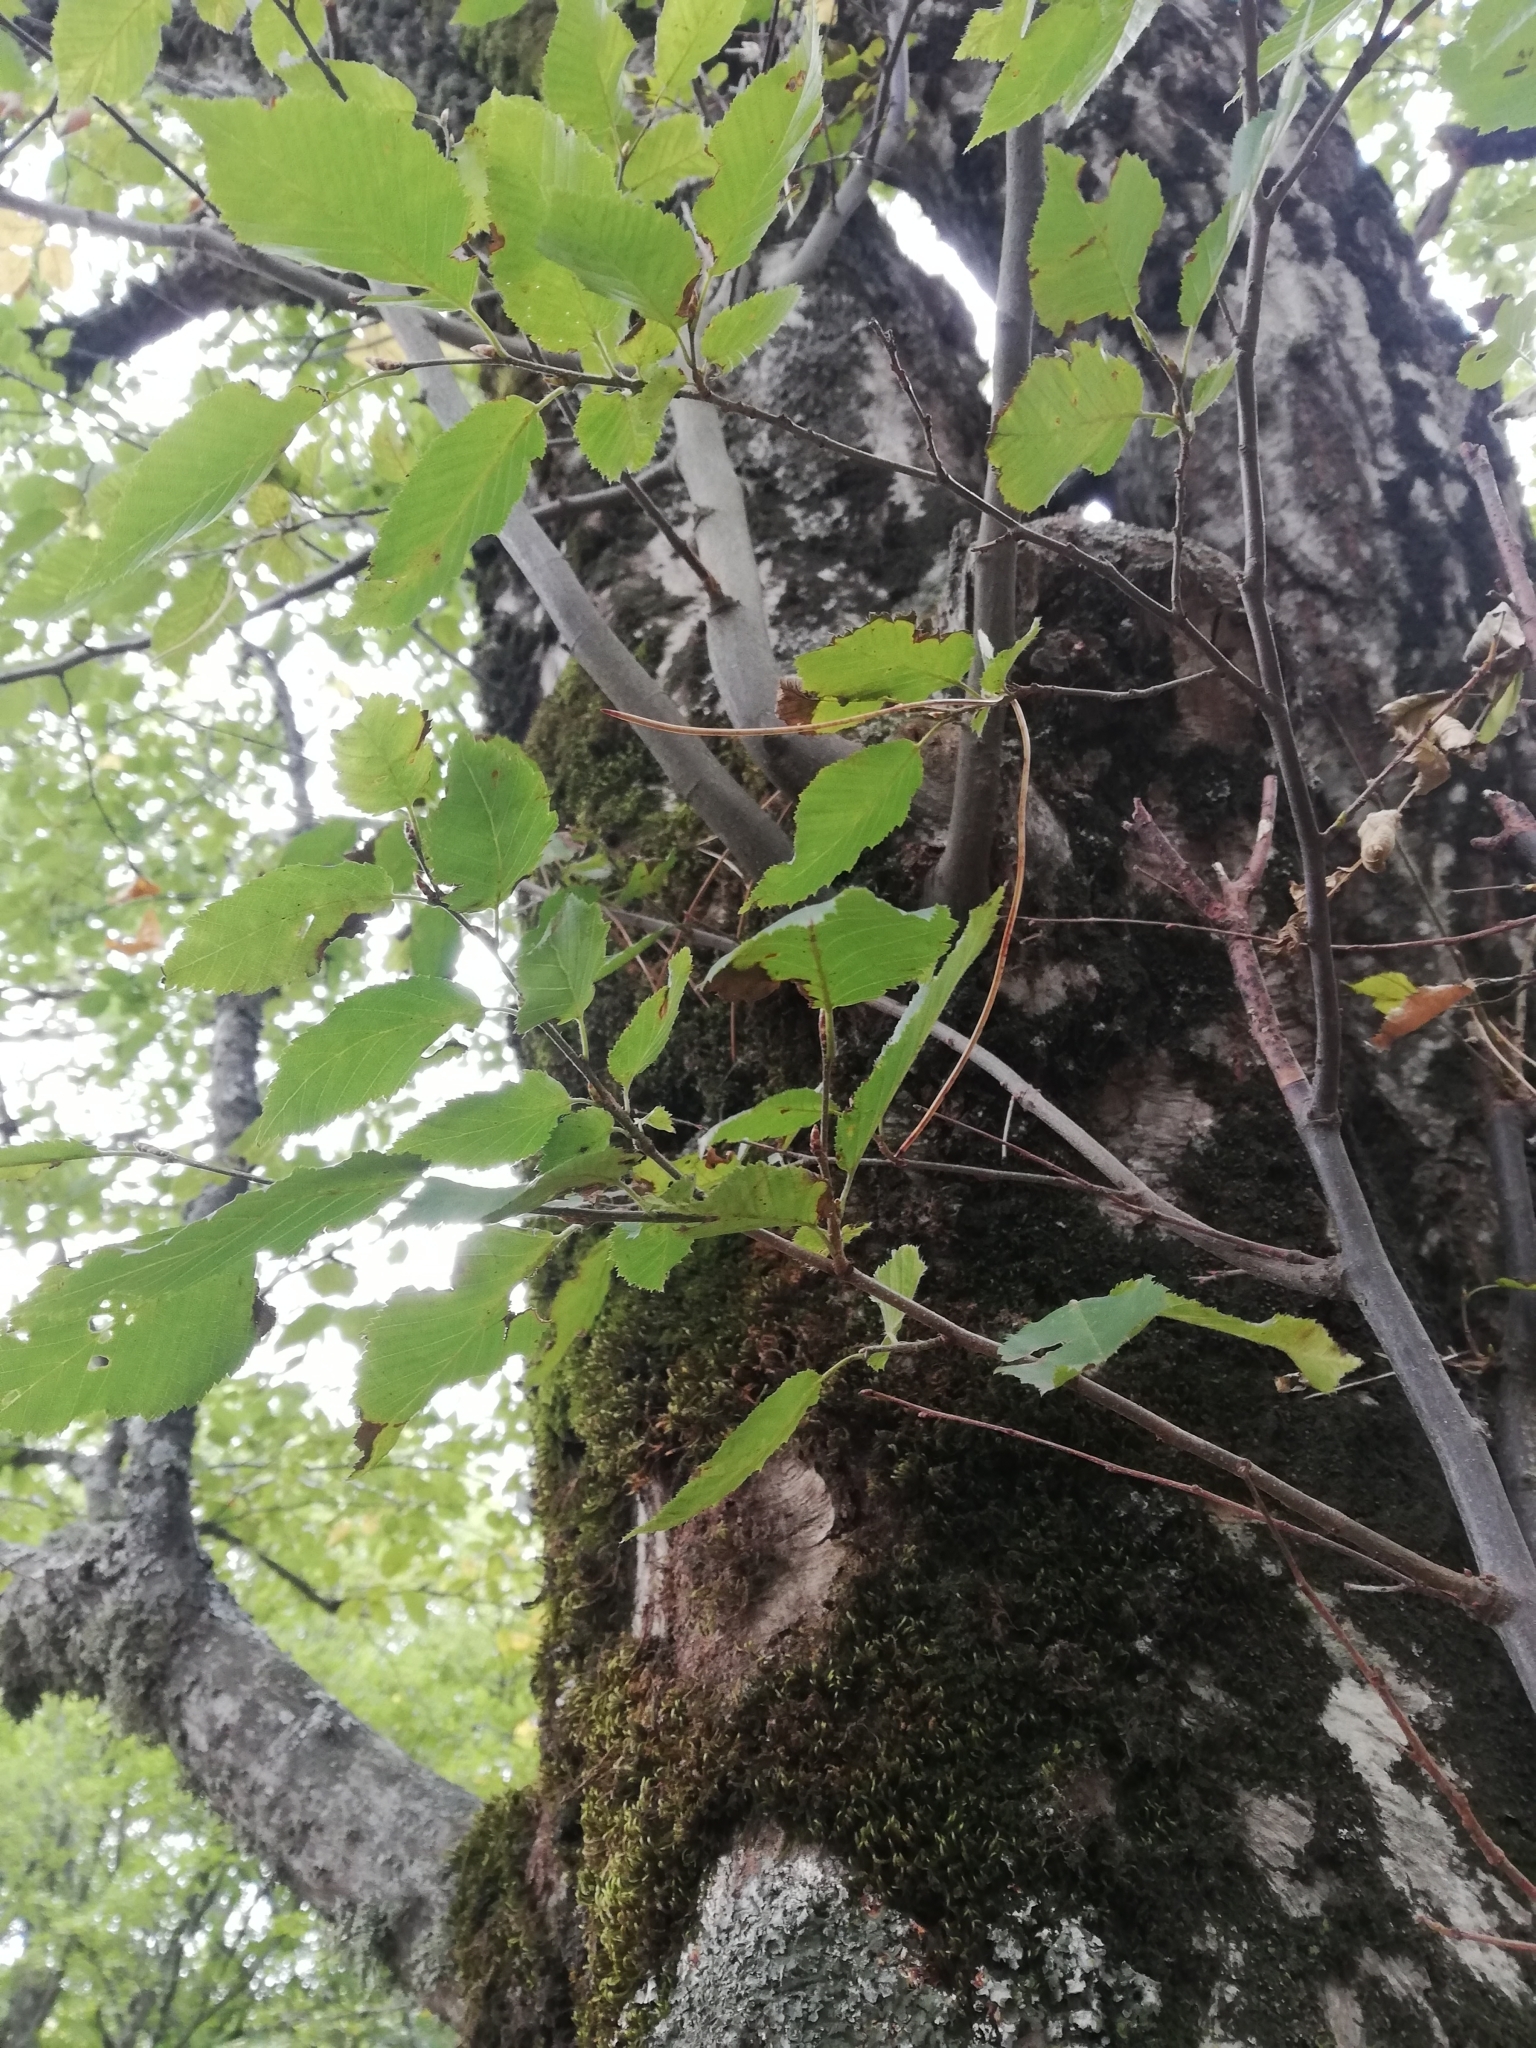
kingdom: Plantae
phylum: Tracheophyta
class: Magnoliopsida
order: Fagales
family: Betulaceae
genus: Carpinus
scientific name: Carpinus betulus
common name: Hornbeam
